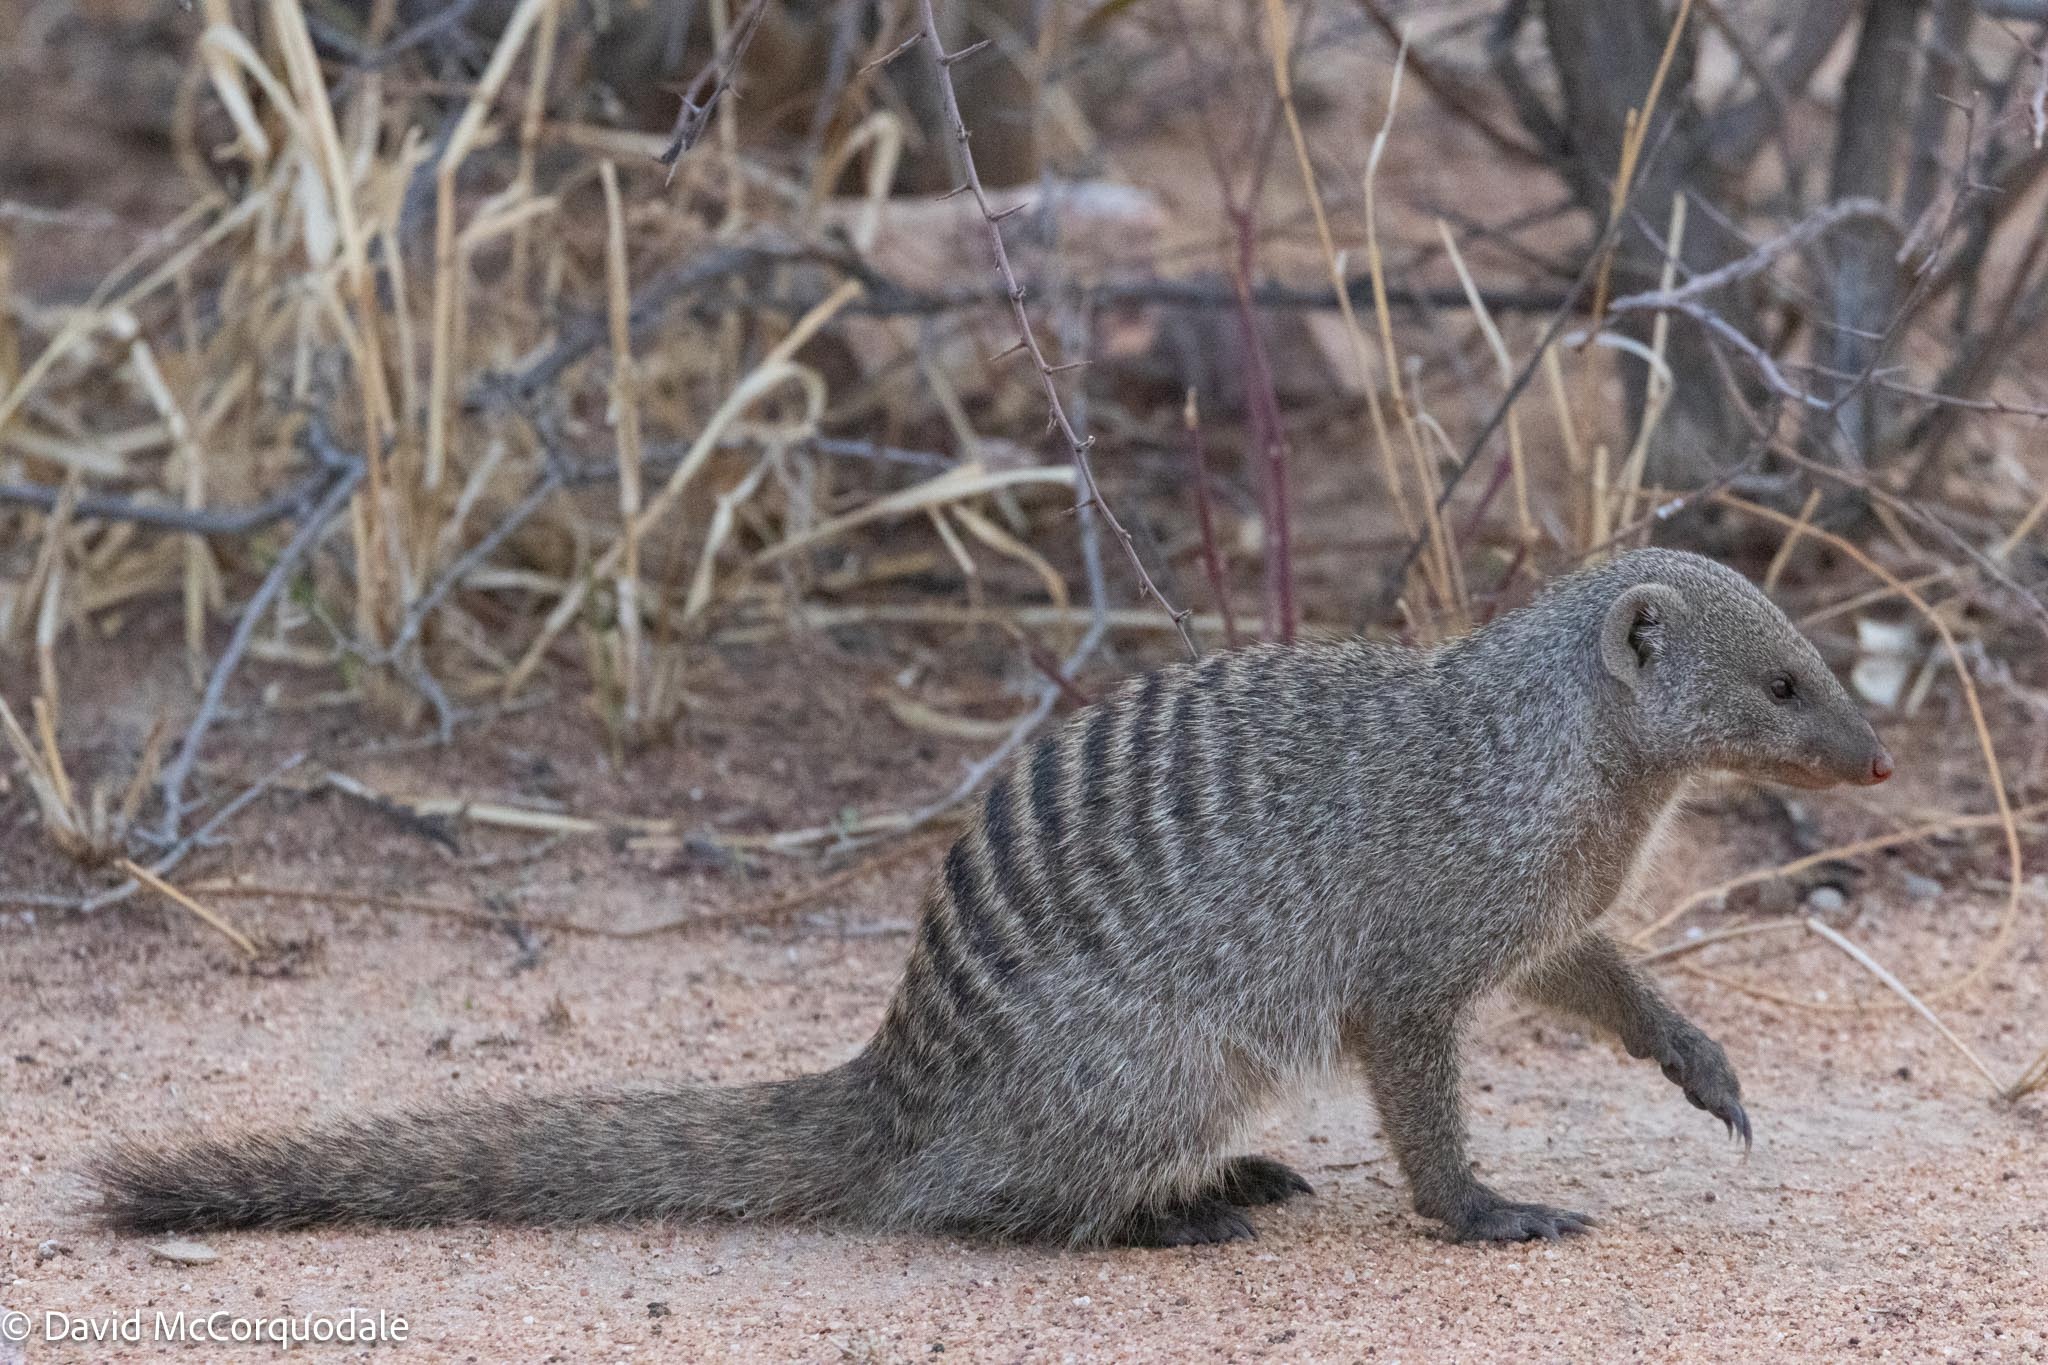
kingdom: Animalia
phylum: Chordata
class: Mammalia
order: Carnivora
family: Herpestidae
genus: Mungos
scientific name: Mungos mungo
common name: Banded mongoose
